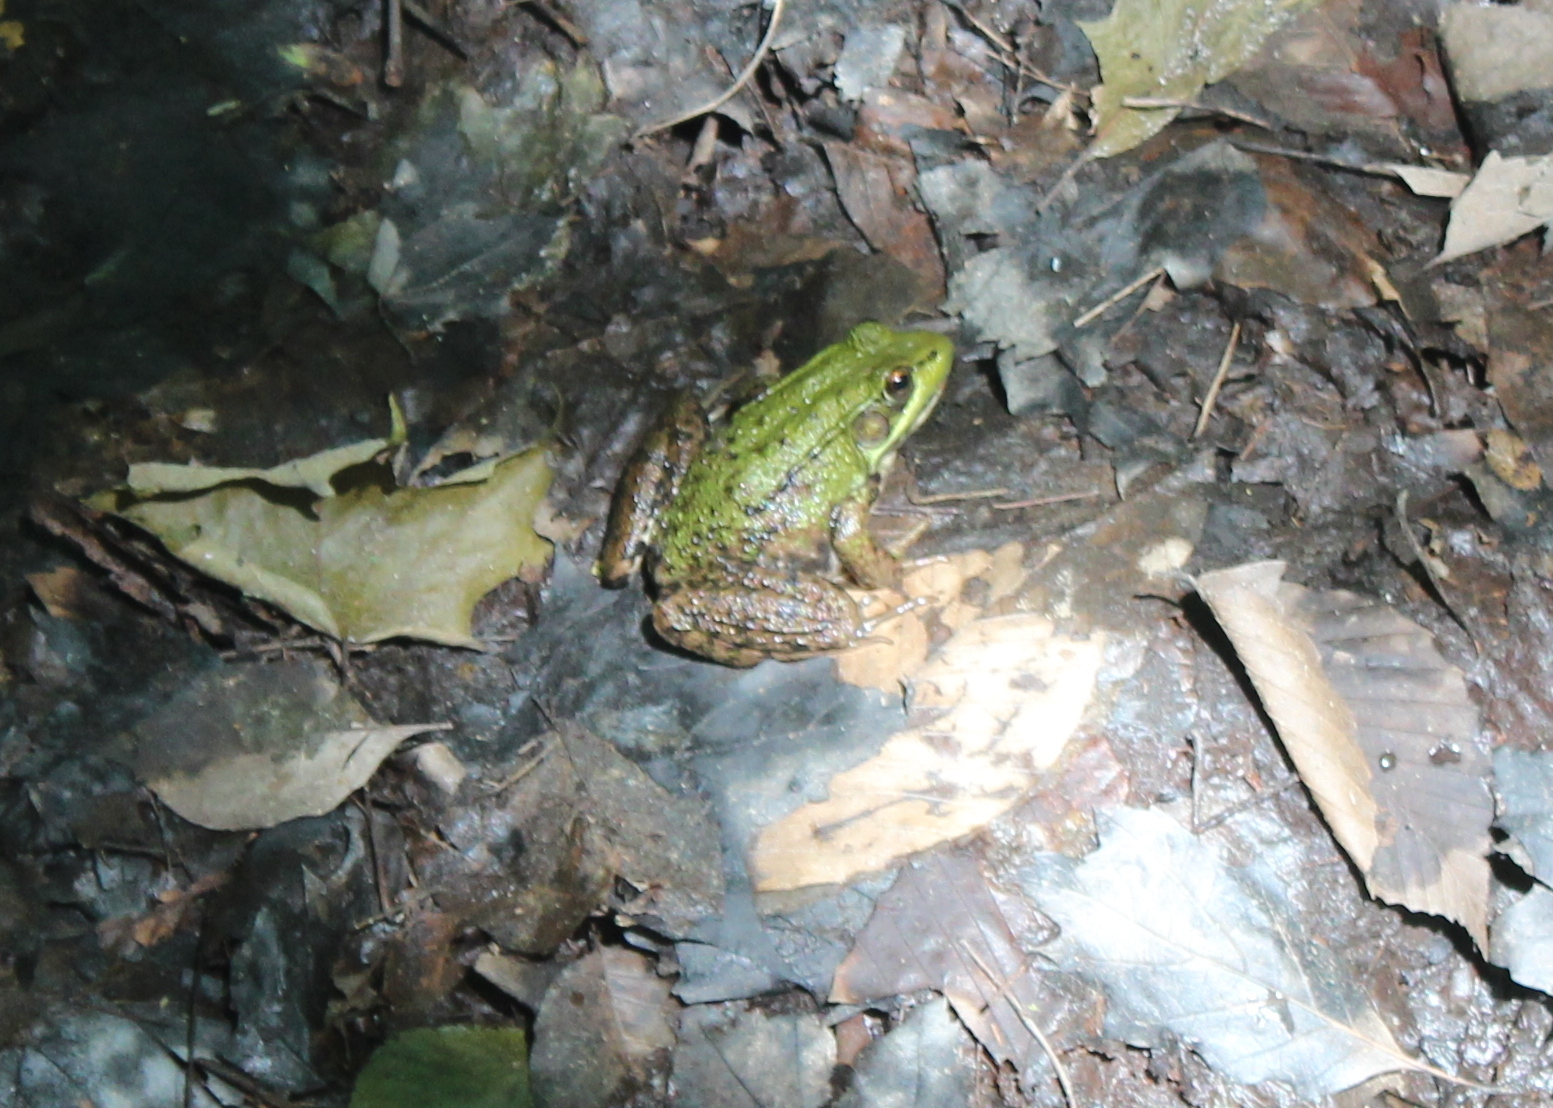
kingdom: Animalia
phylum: Chordata
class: Amphibia
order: Anura
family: Ranidae
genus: Lithobates
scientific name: Lithobates clamitans
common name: Green frog
